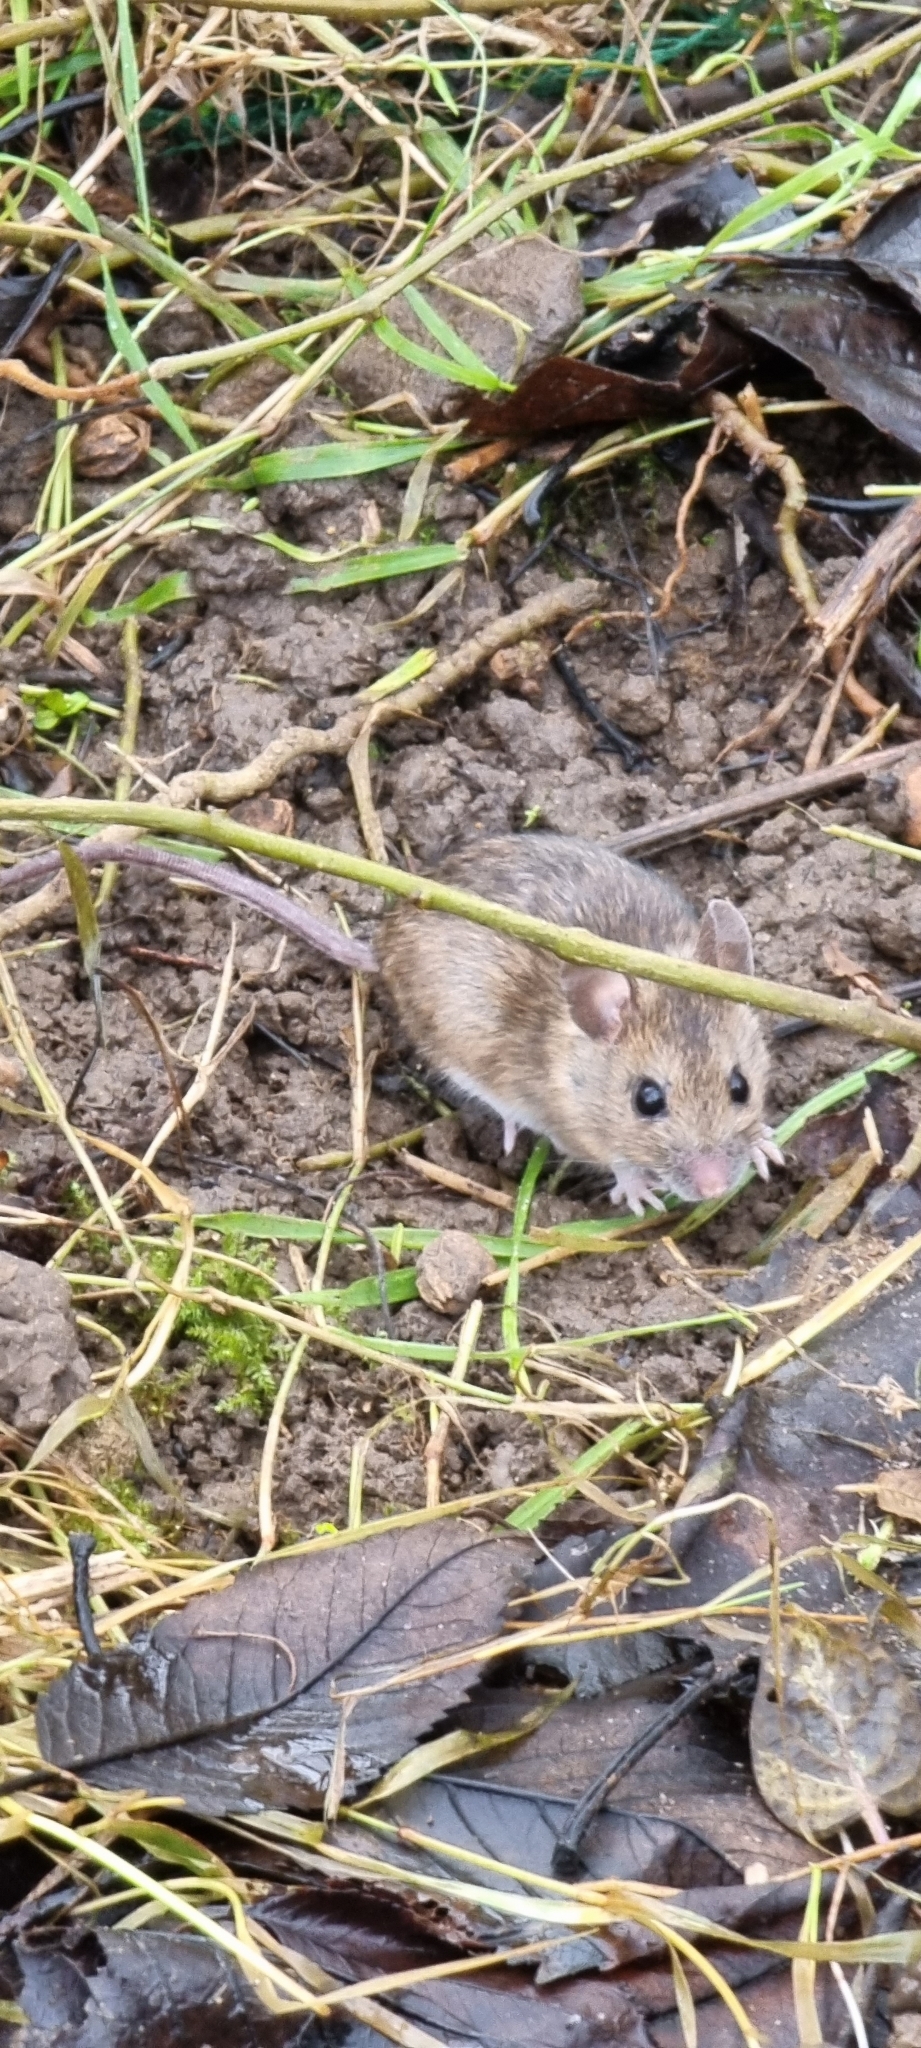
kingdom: Animalia
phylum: Chordata
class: Mammalia
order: Rodentia
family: Muridae
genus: Apodemus
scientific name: Apodemus sylvaticus
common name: Wood mouse
